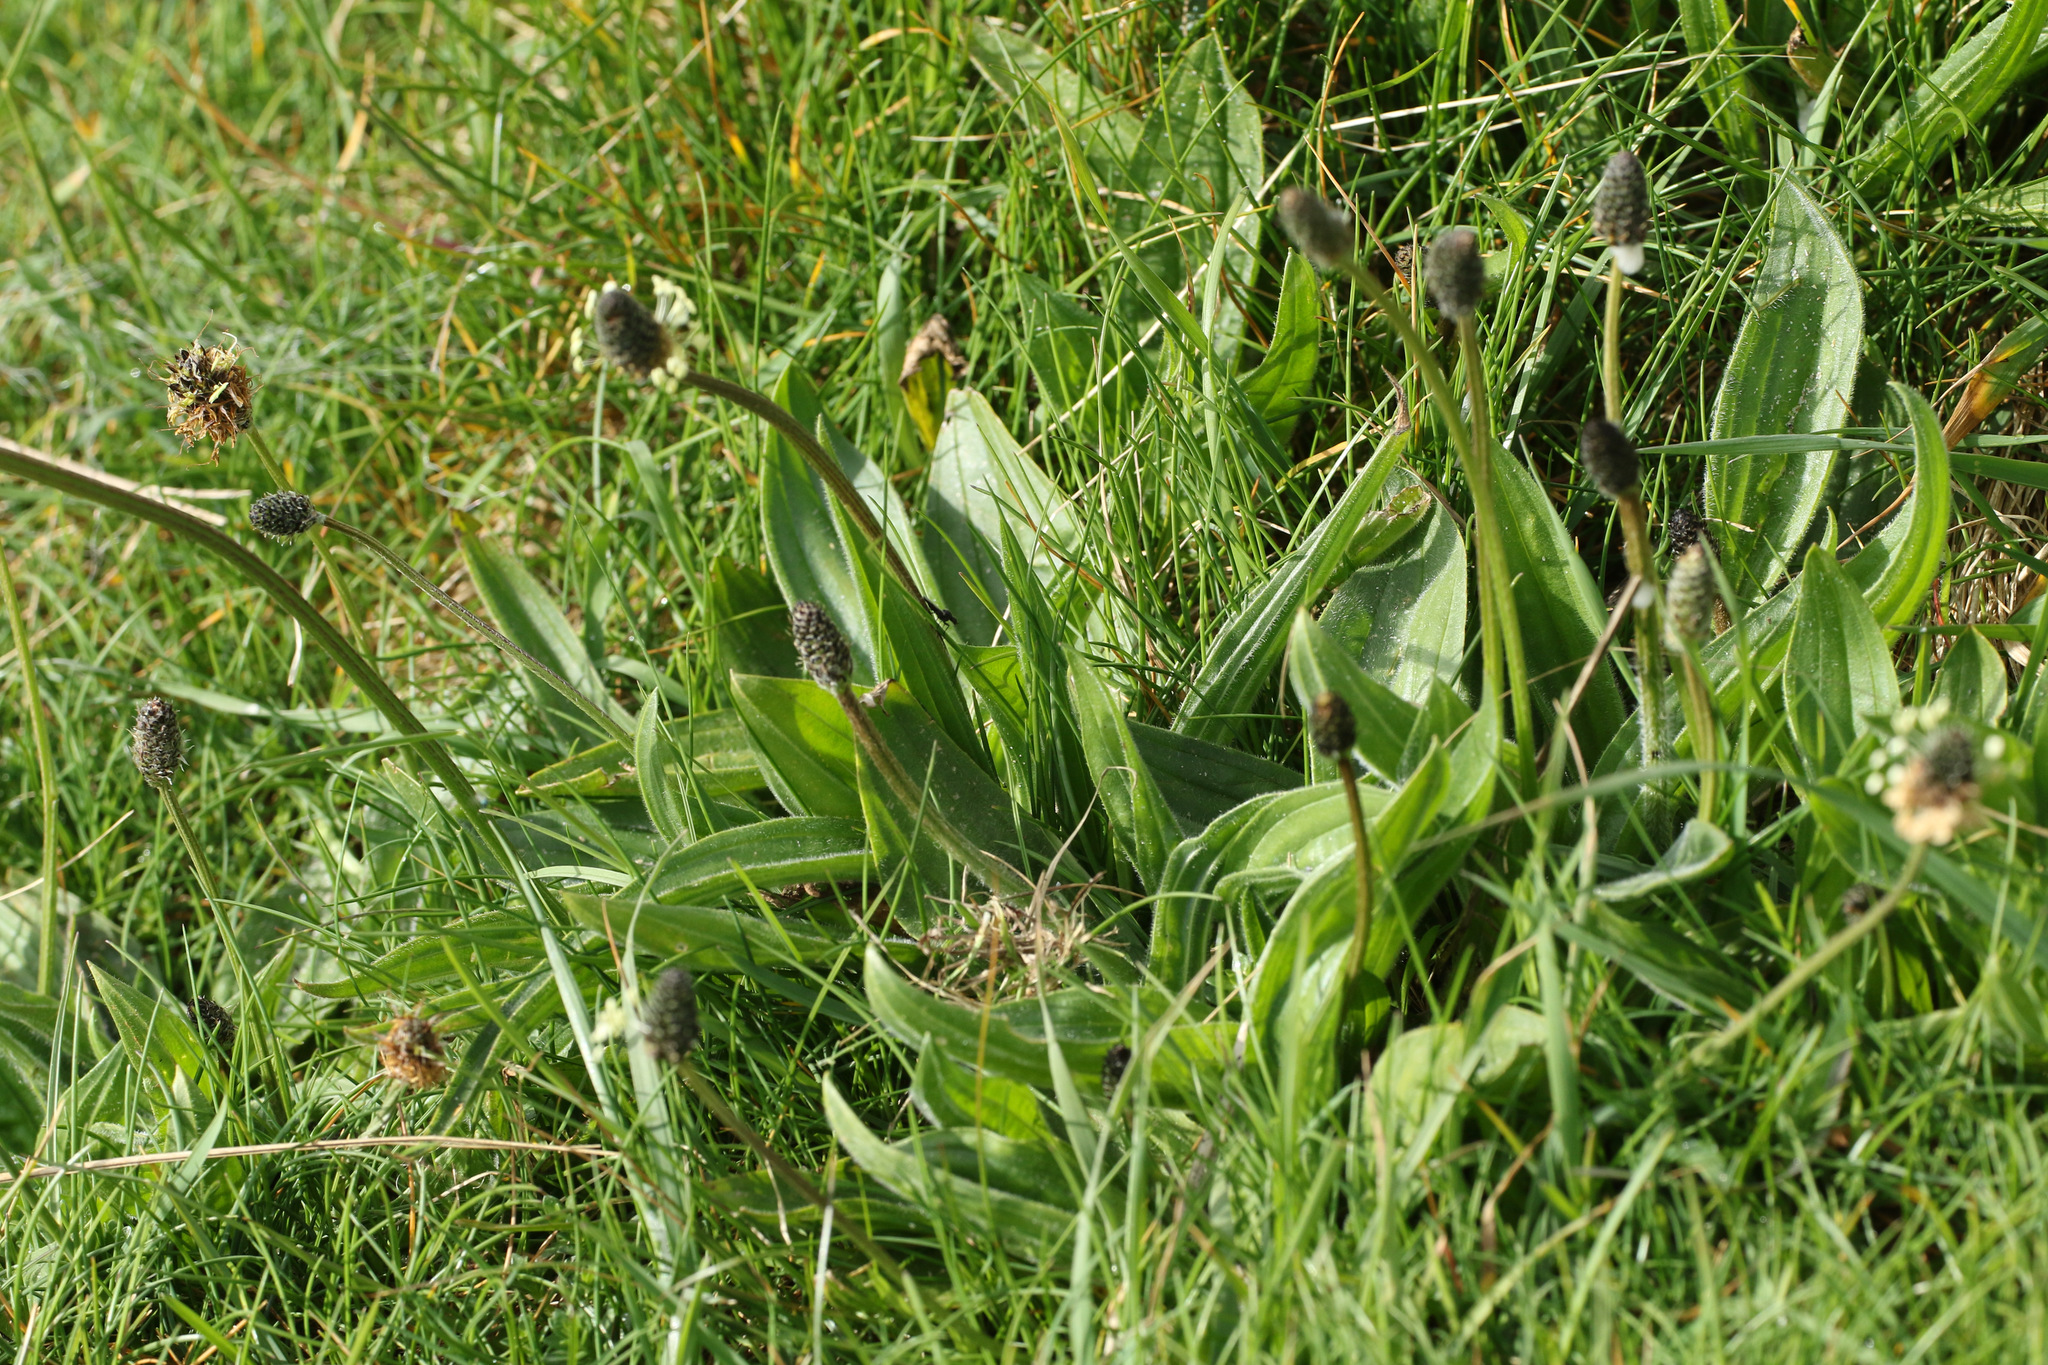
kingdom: Plantae
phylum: Tracheophyta
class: Magnoliopsida
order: Lamiales
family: Plantaginaceae
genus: Plantago
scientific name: Plantago lanceolata
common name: Ribwort plantain
